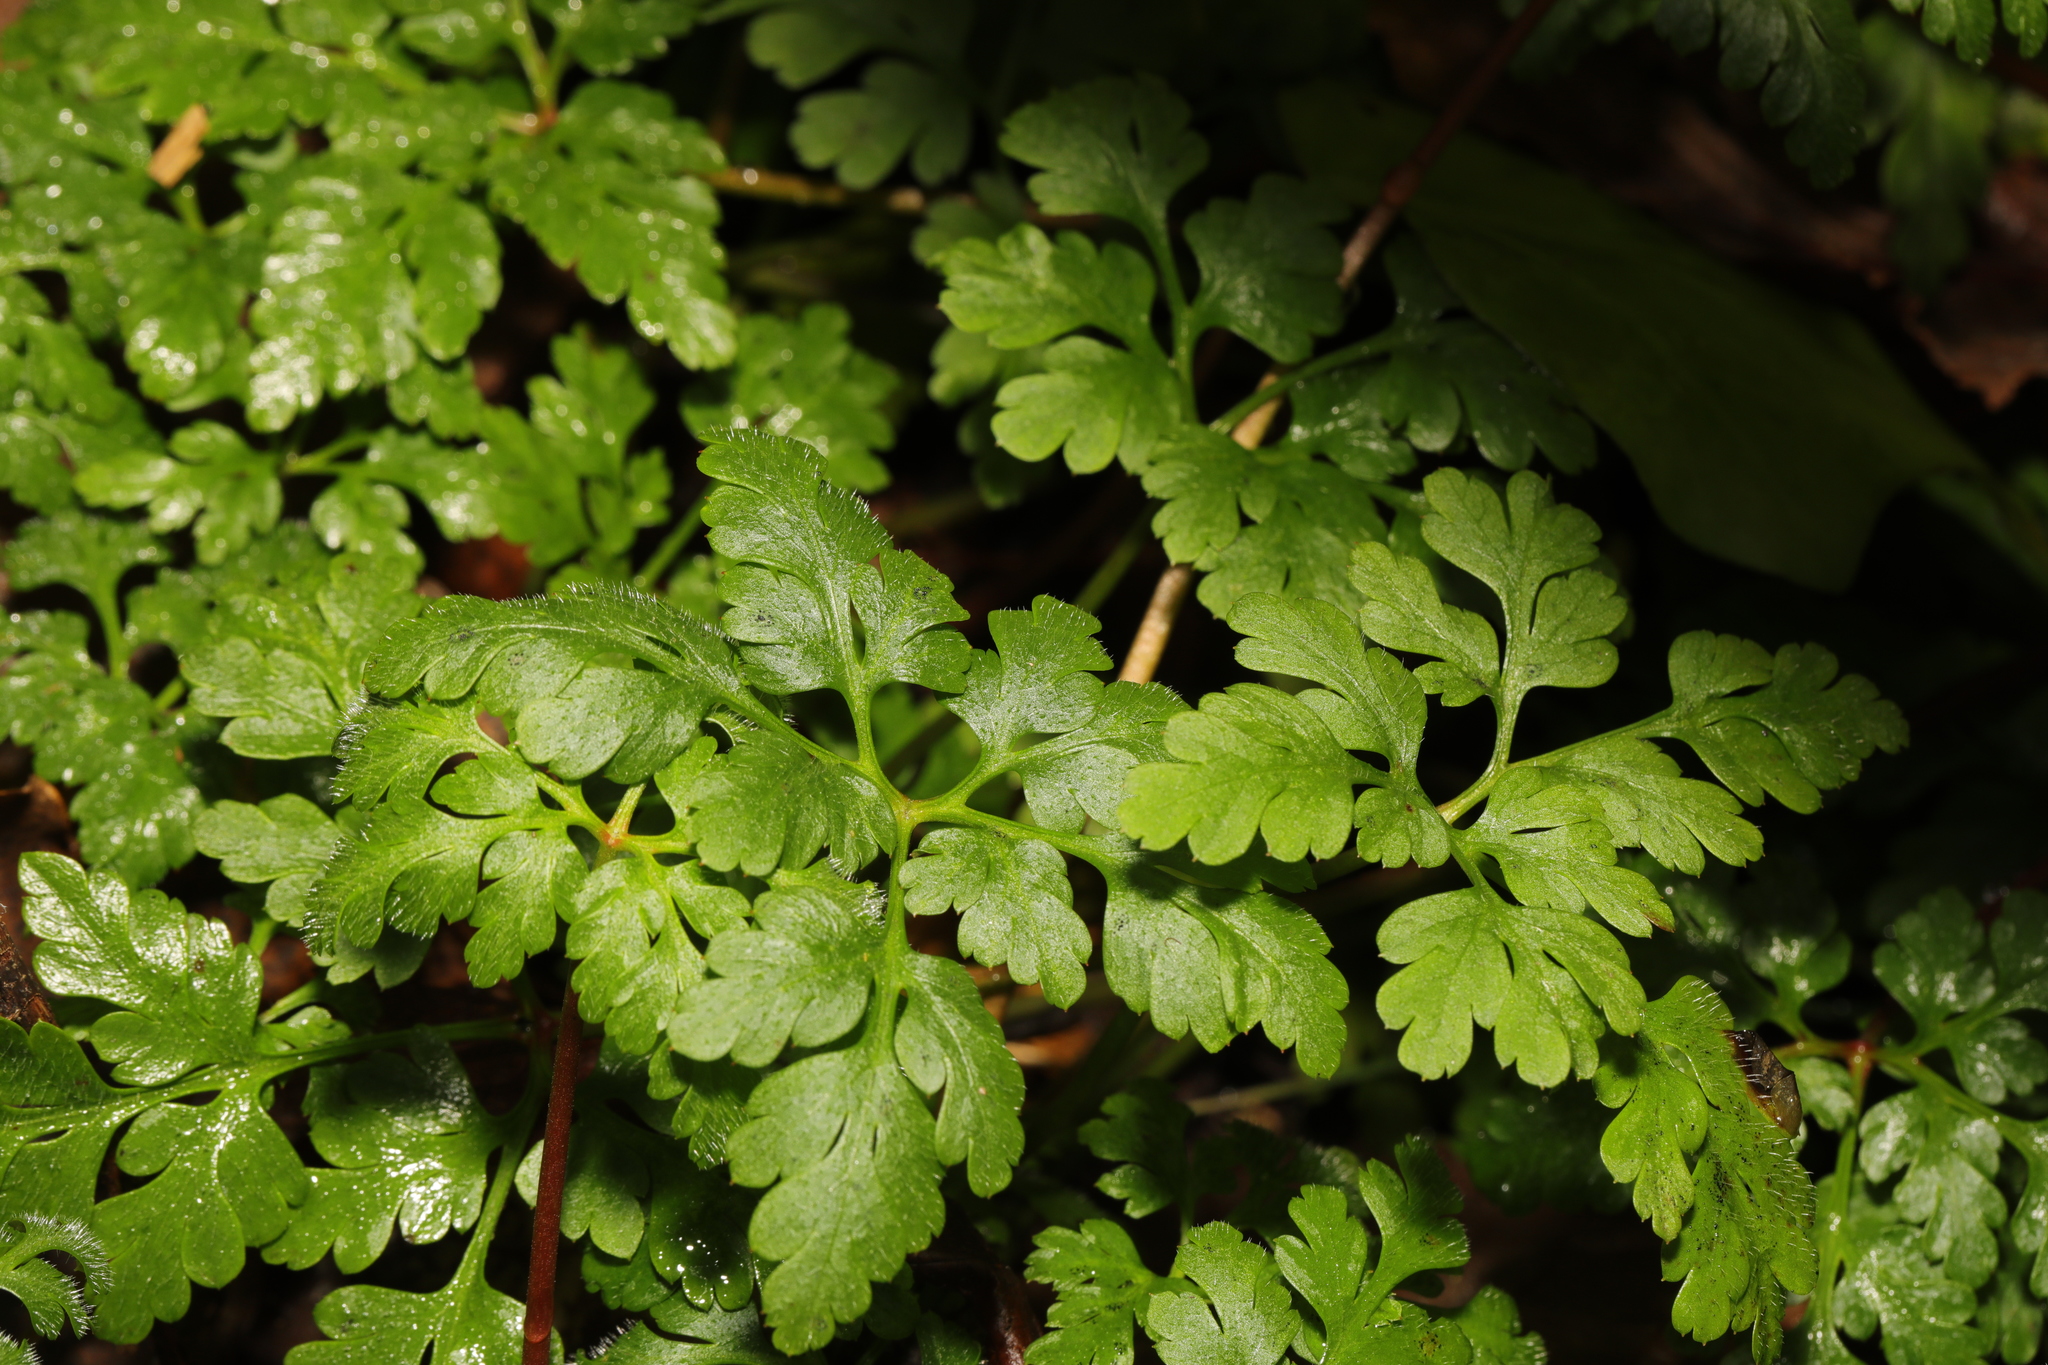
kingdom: Plantae
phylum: Tracheophyta
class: Magnoliopsida
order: Geraniales
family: Geraniaceae
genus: Geranium
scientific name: Geranium robertianum
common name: Herb-robert
